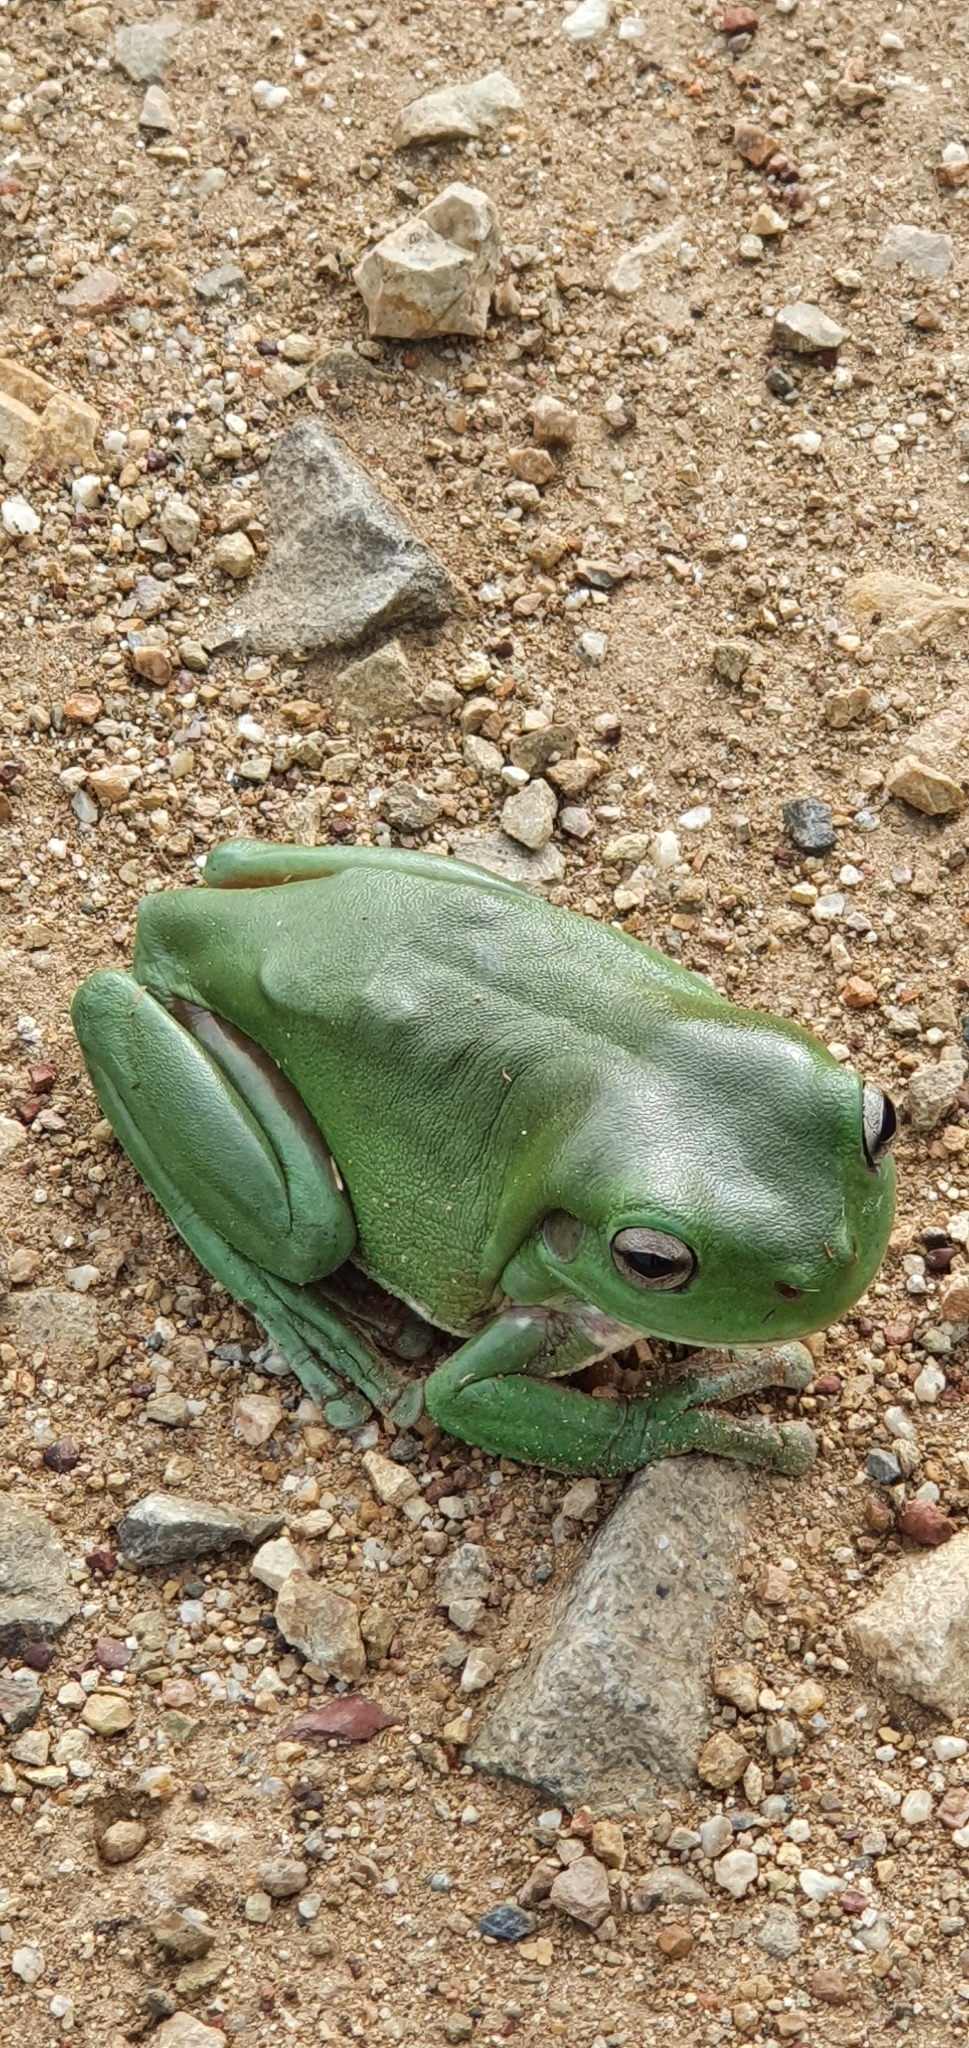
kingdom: Animalia
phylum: Chordata
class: Amphibia
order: Anura
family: Pelodryadidae
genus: Ranoidea
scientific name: Ranoidea caerulea
